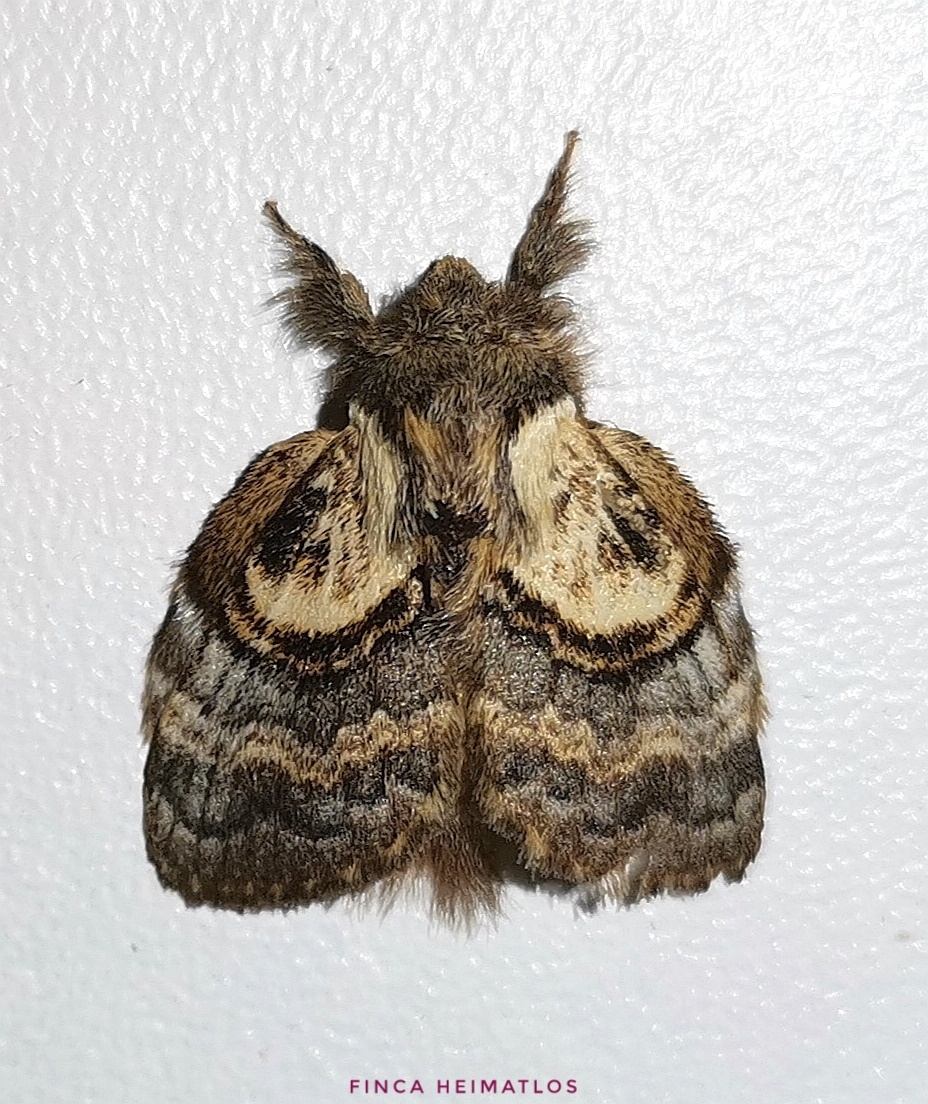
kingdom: Animalia
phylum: Arthropoda
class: Insecta
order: Lepidoptera
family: Lasiocampidae
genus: Euglyphis
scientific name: Euglyphis egra
